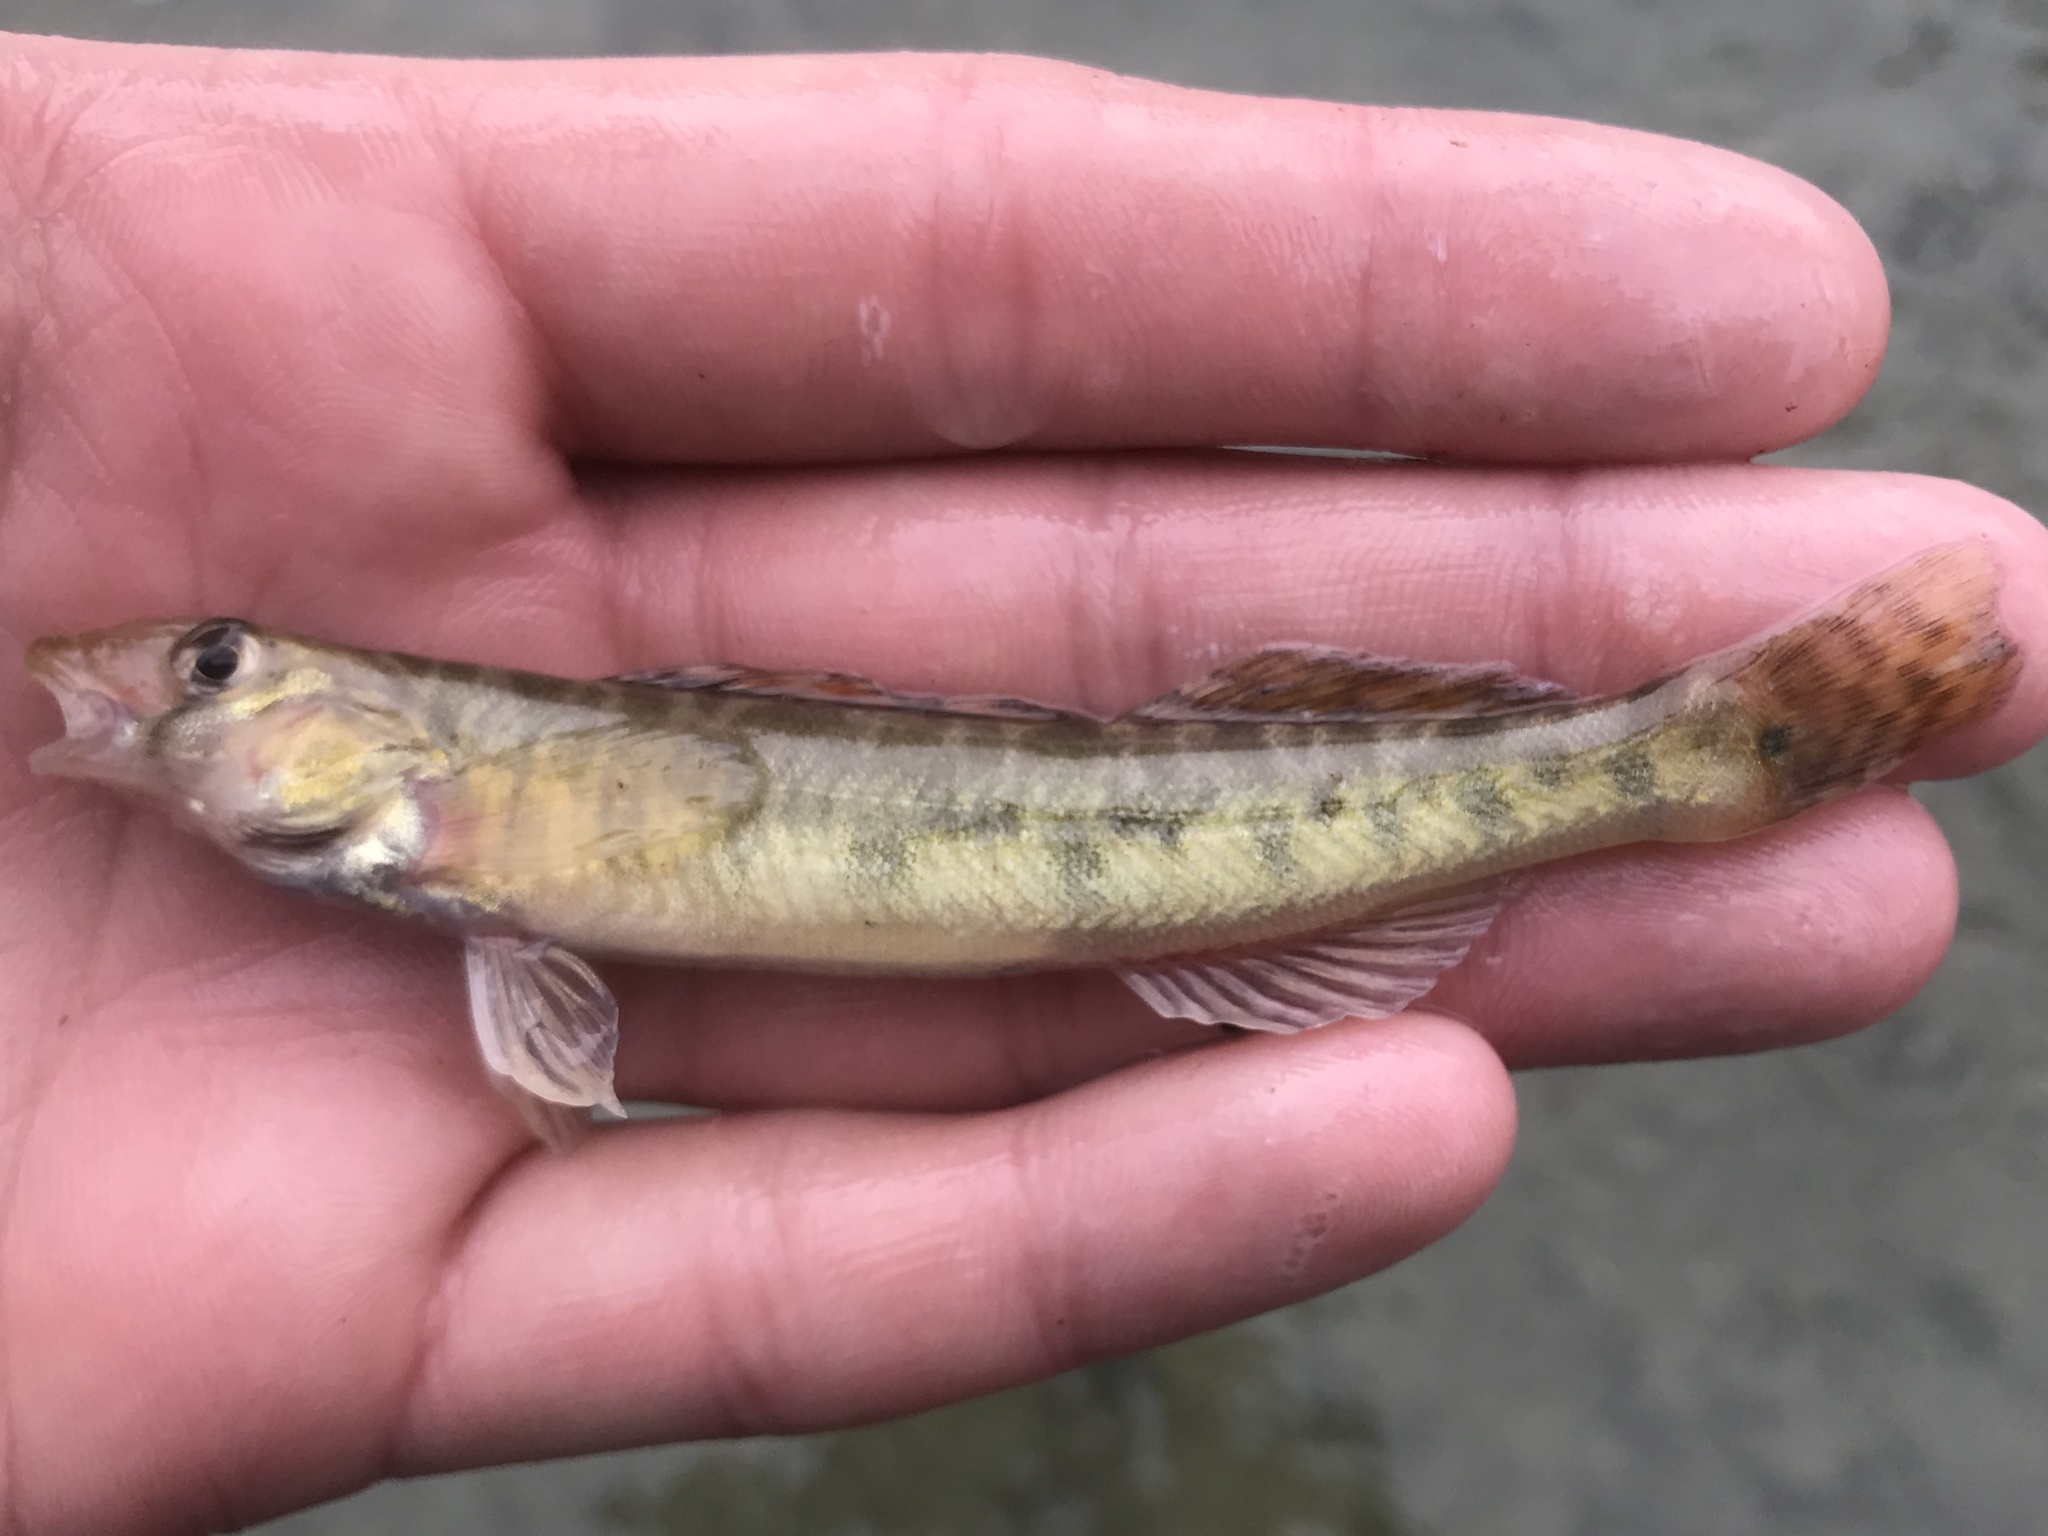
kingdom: Animalia
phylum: Chordata
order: Perciformes
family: Percidae
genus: Percina
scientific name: Percina carbonaria
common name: Texas logperch
